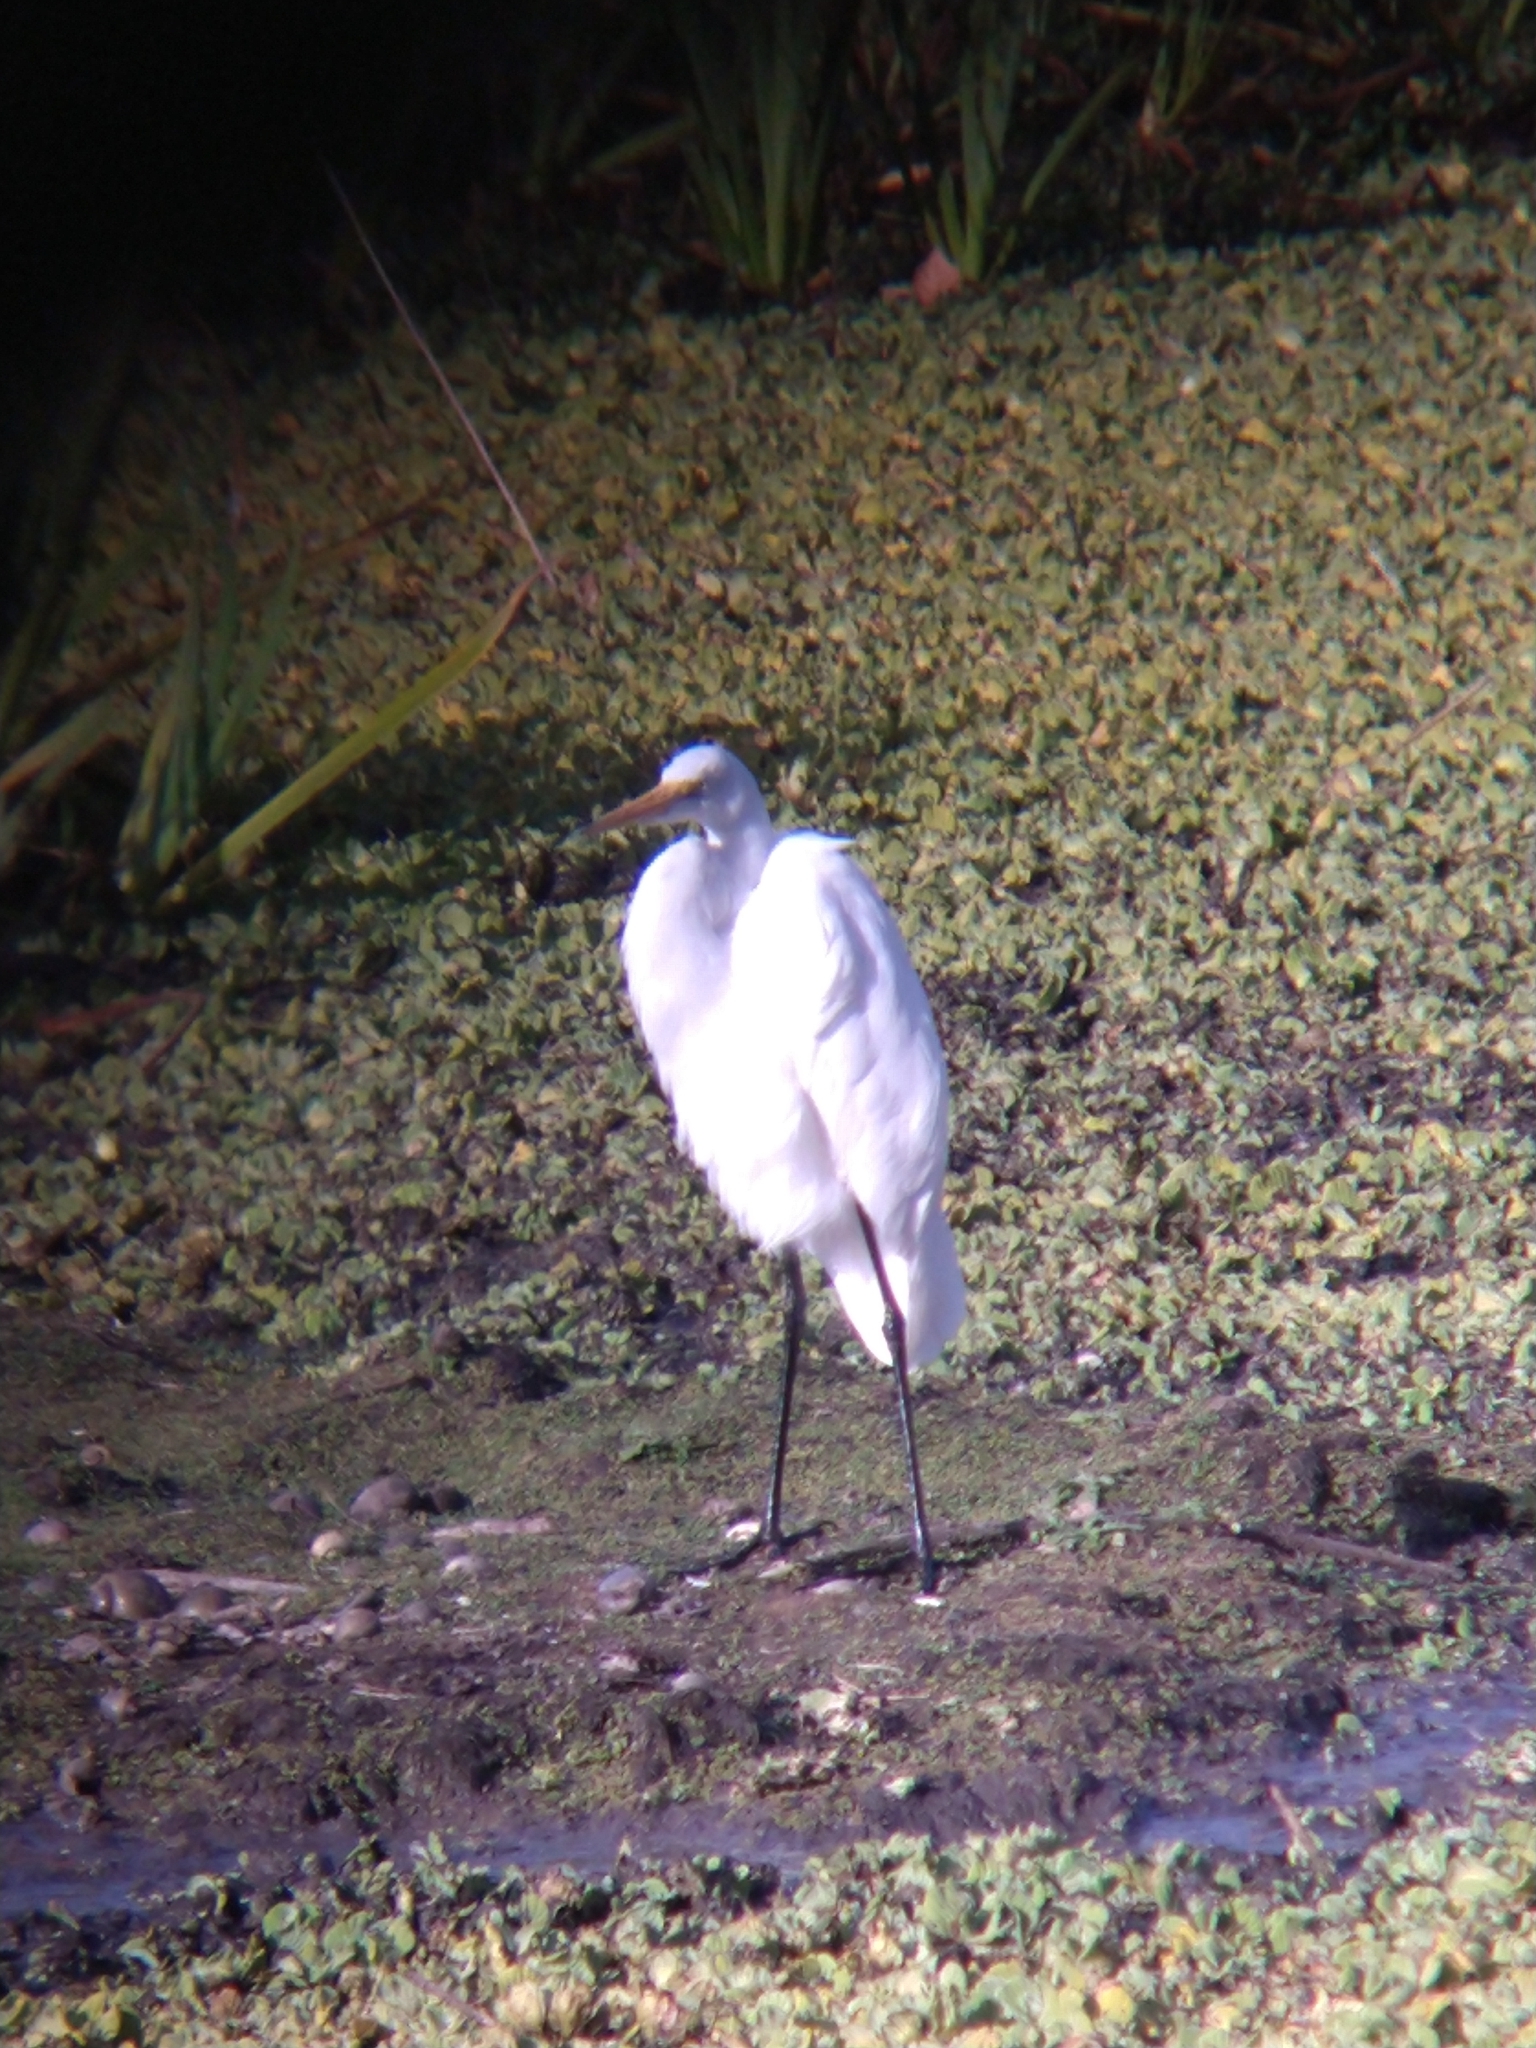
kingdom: Animalia
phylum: Chordata
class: Aves
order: Pelecaniformes
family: Ardeidae
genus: Ardea
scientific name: Ardea alba
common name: Great egret
